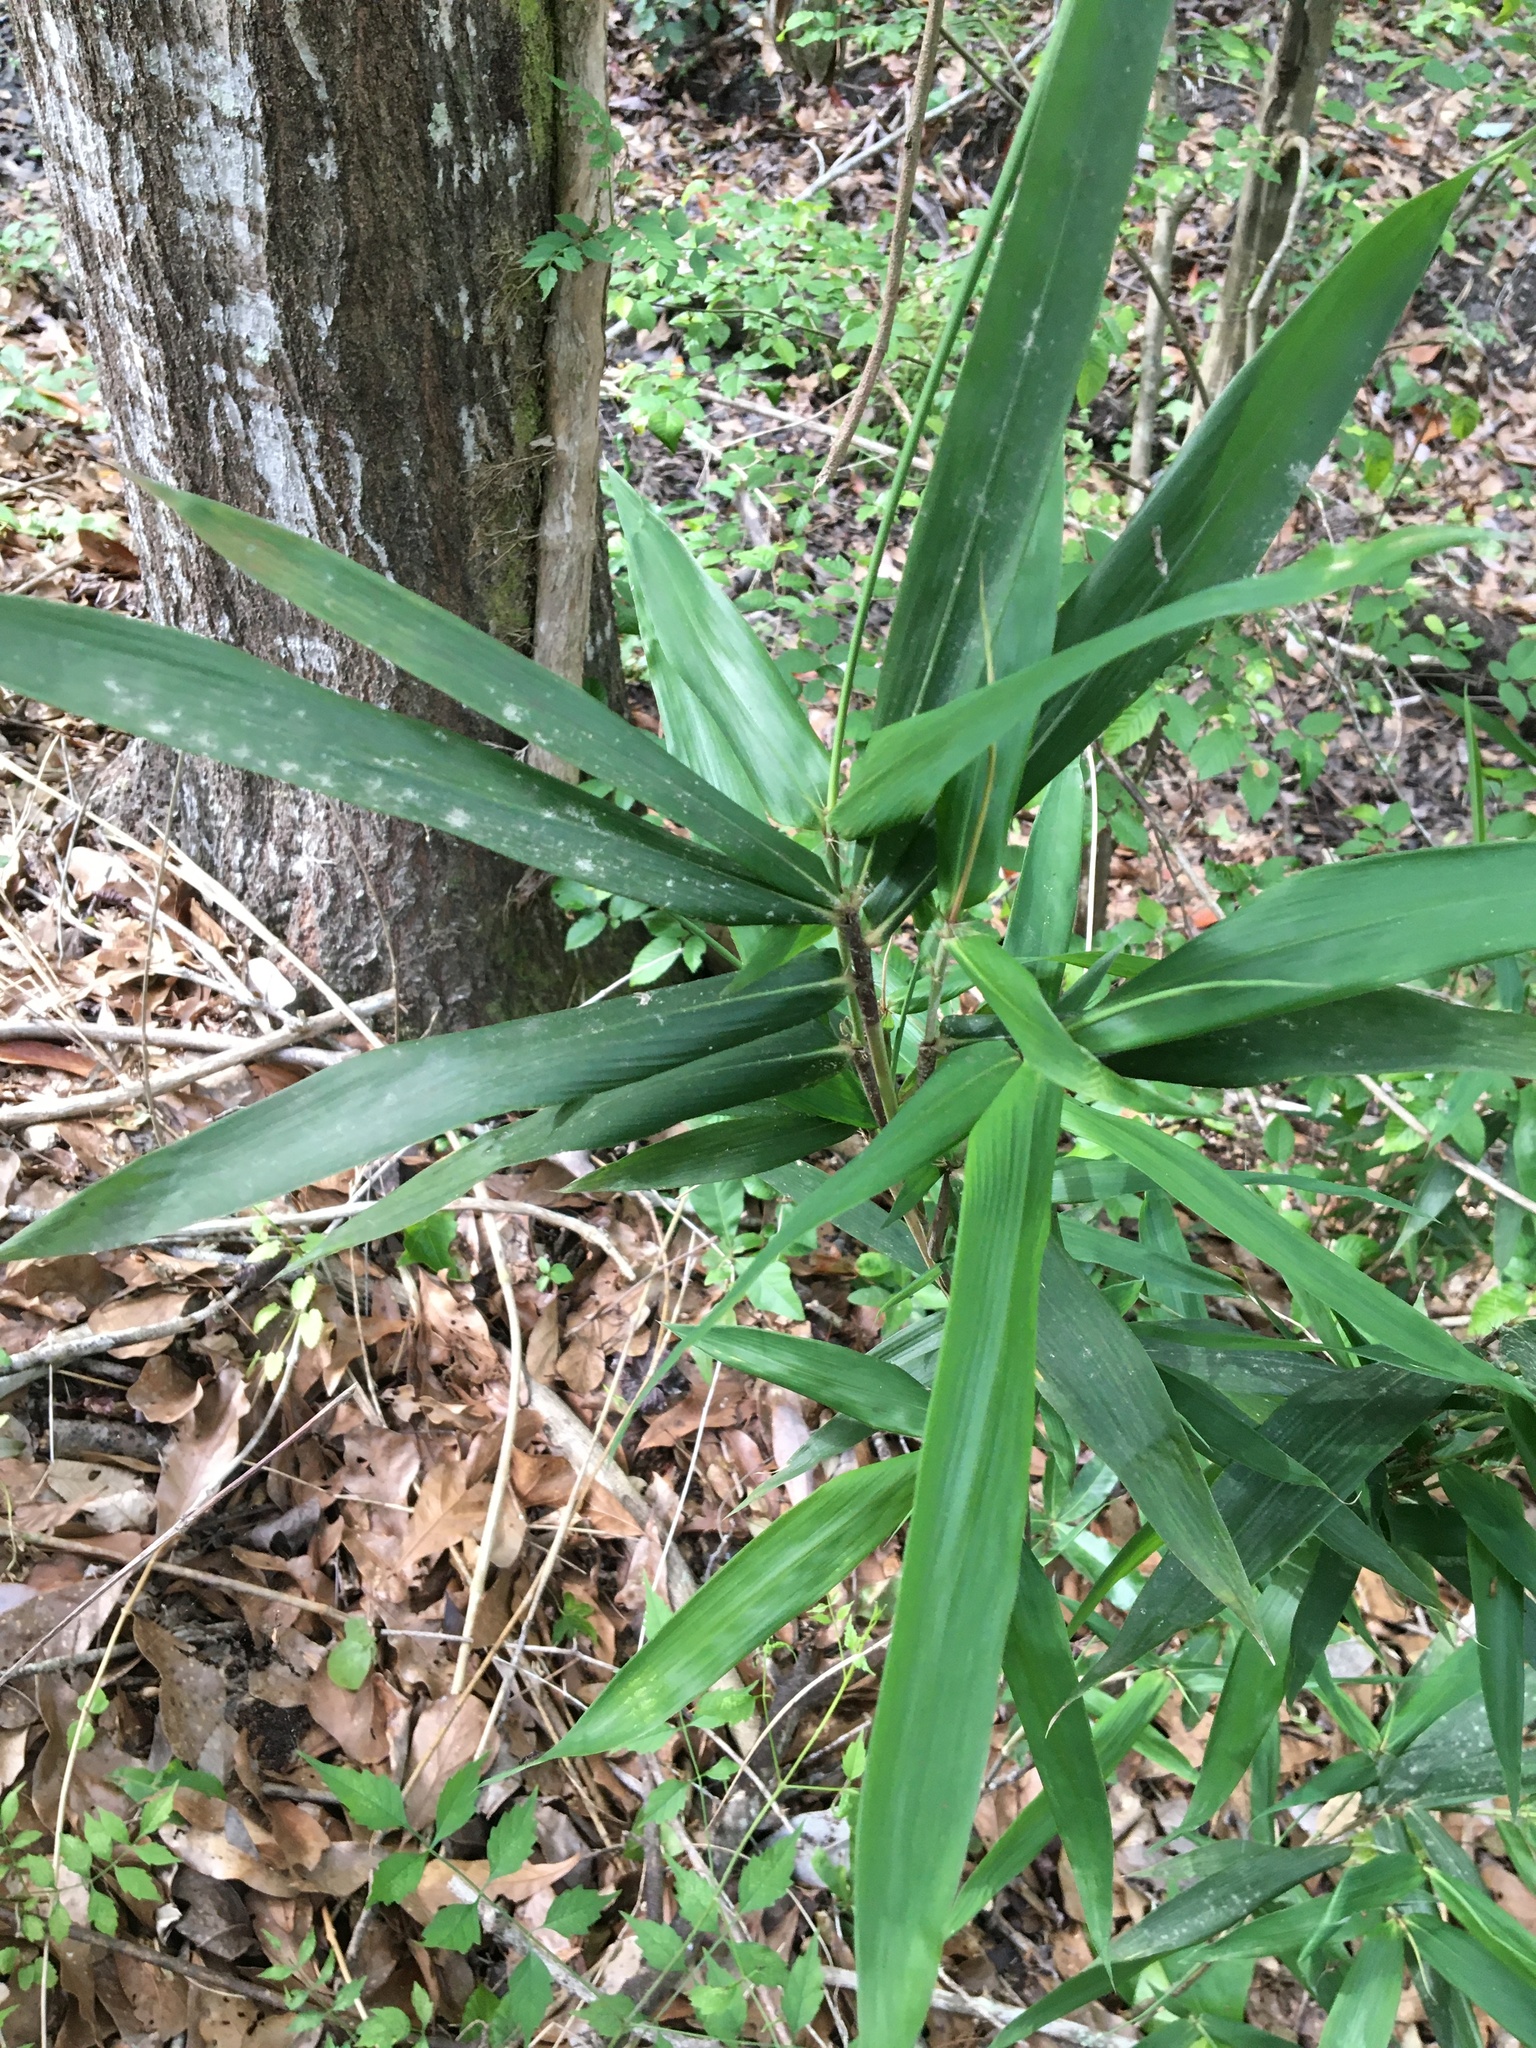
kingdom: Plantae
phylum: Tracheophyta
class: Liliopsida
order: Poales
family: Poaceae
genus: Arundinaria
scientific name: Arundinaria tecta
